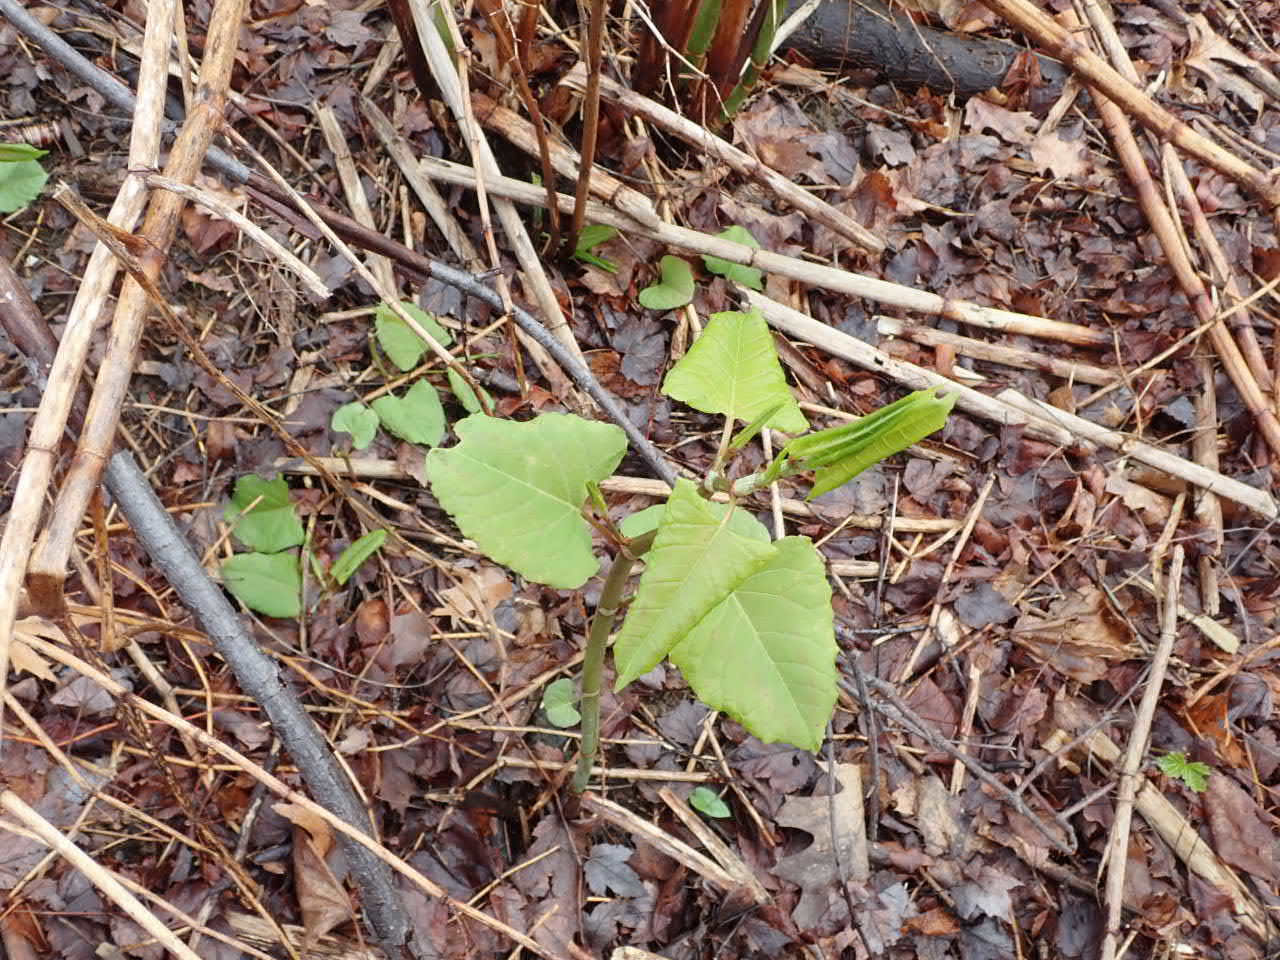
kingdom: Plantae
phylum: Tracheophyta
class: Magnoliopsida
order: Caryophyllales
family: Polygonaceae
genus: Reynoutria
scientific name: Reynoutria japonica
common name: Japanese knotweed
